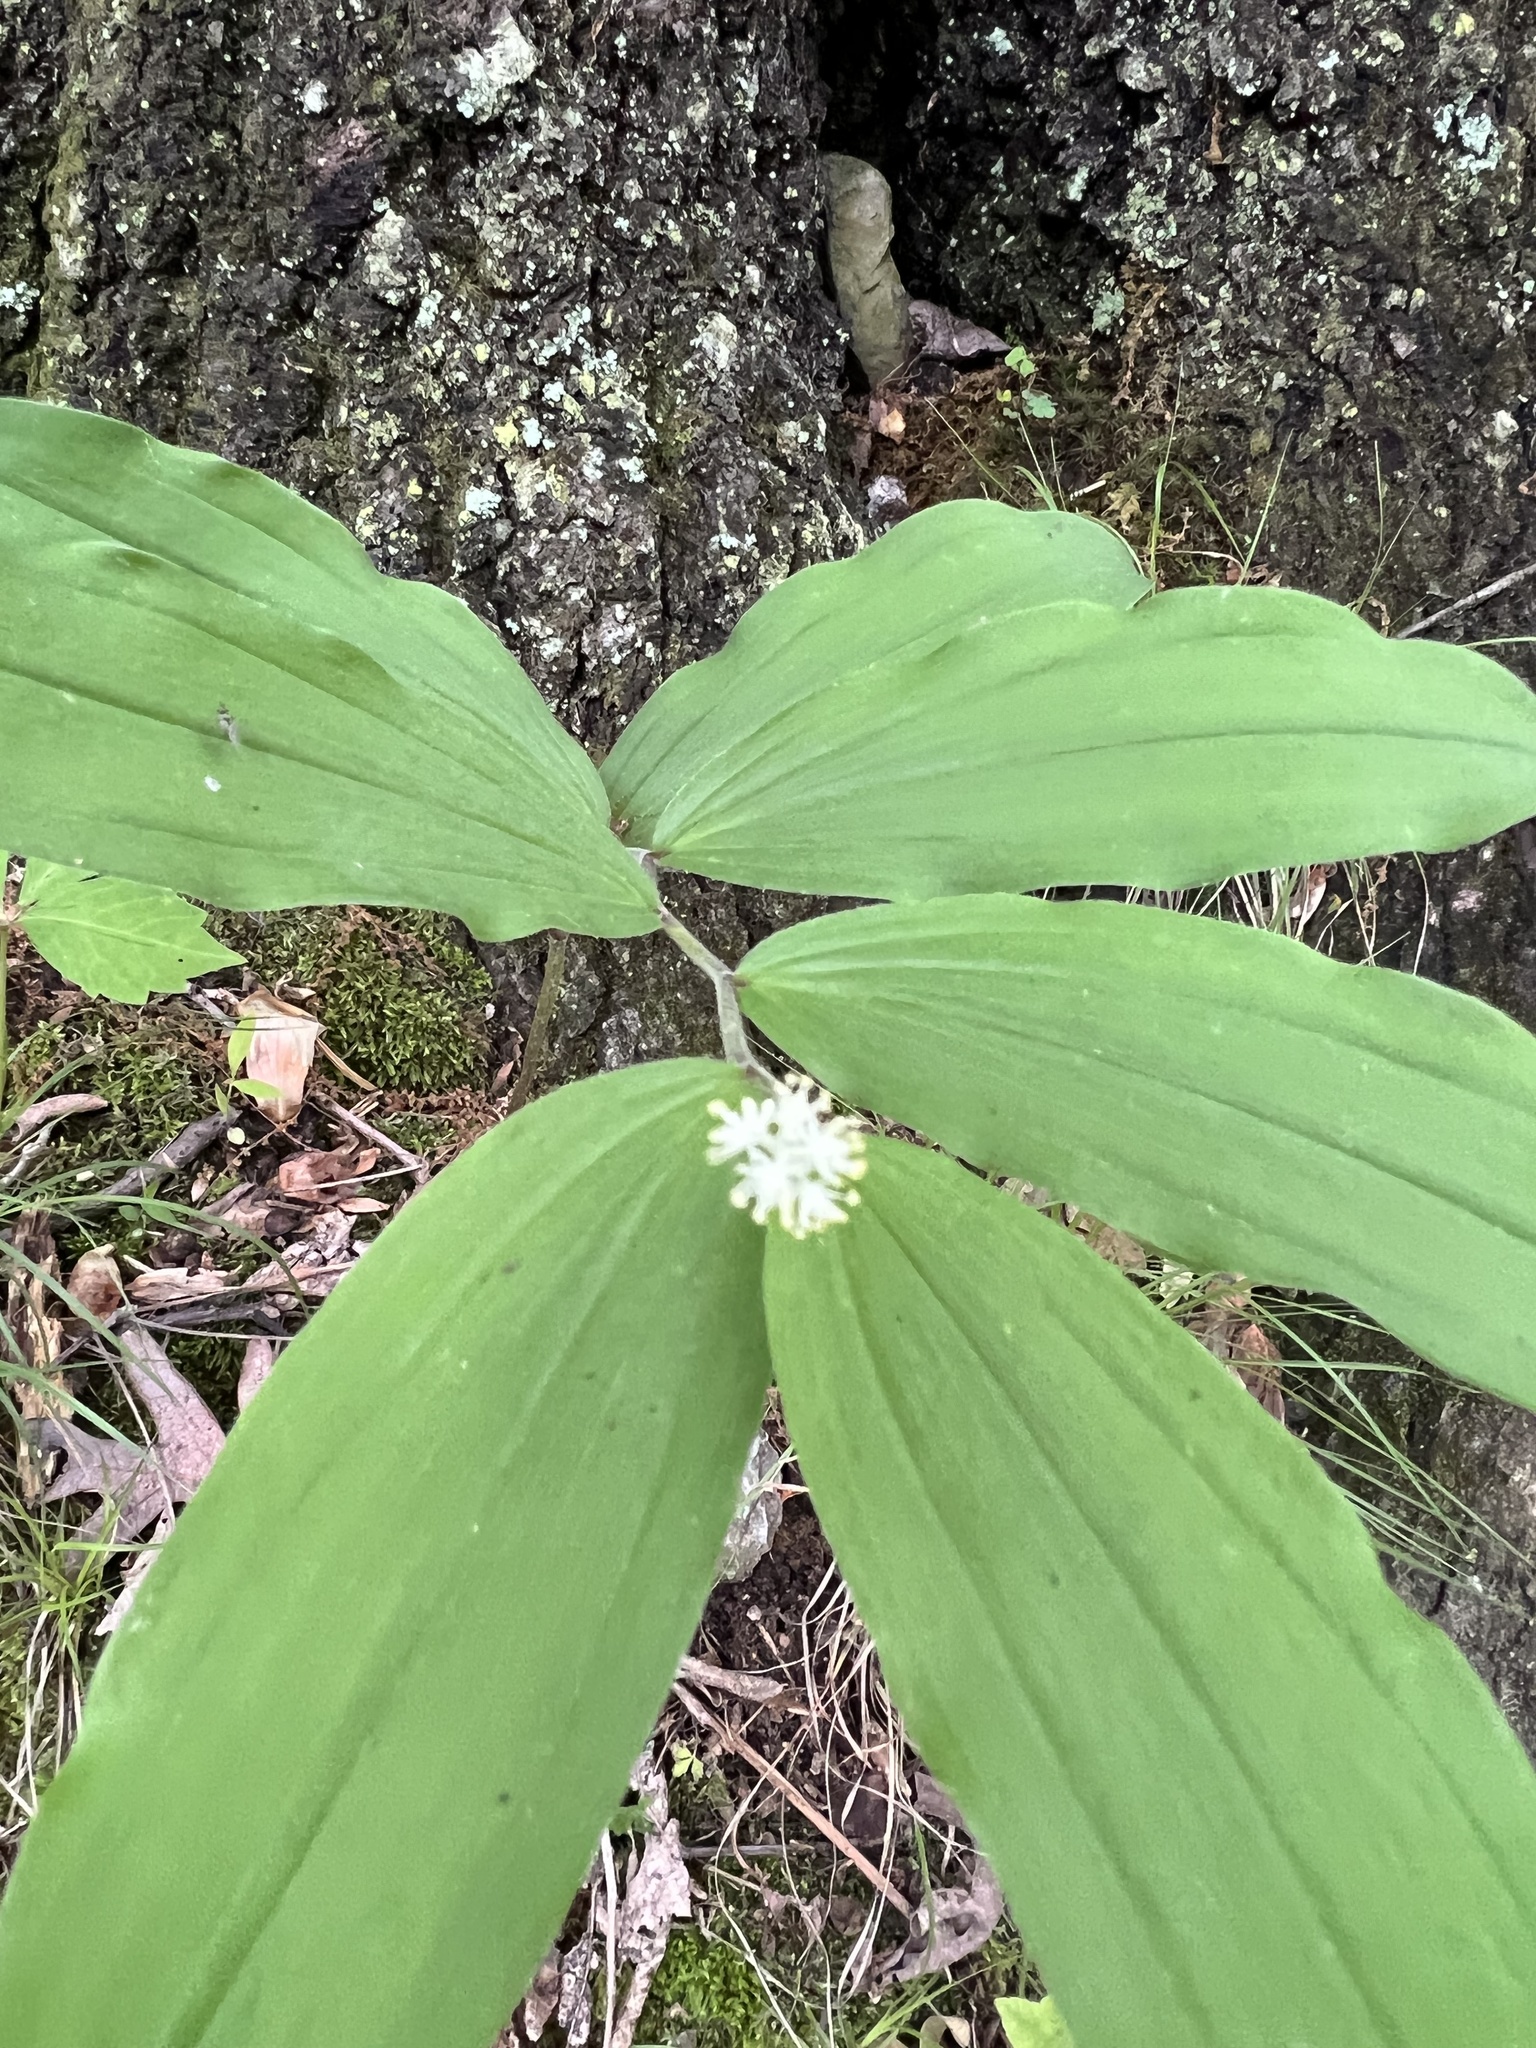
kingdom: Plantae
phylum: Tracheophyta
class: Liliopsida
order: Asparagales
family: Asparagaceae
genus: Maianthemum
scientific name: Maianthemum racemosum
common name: False spikenard
